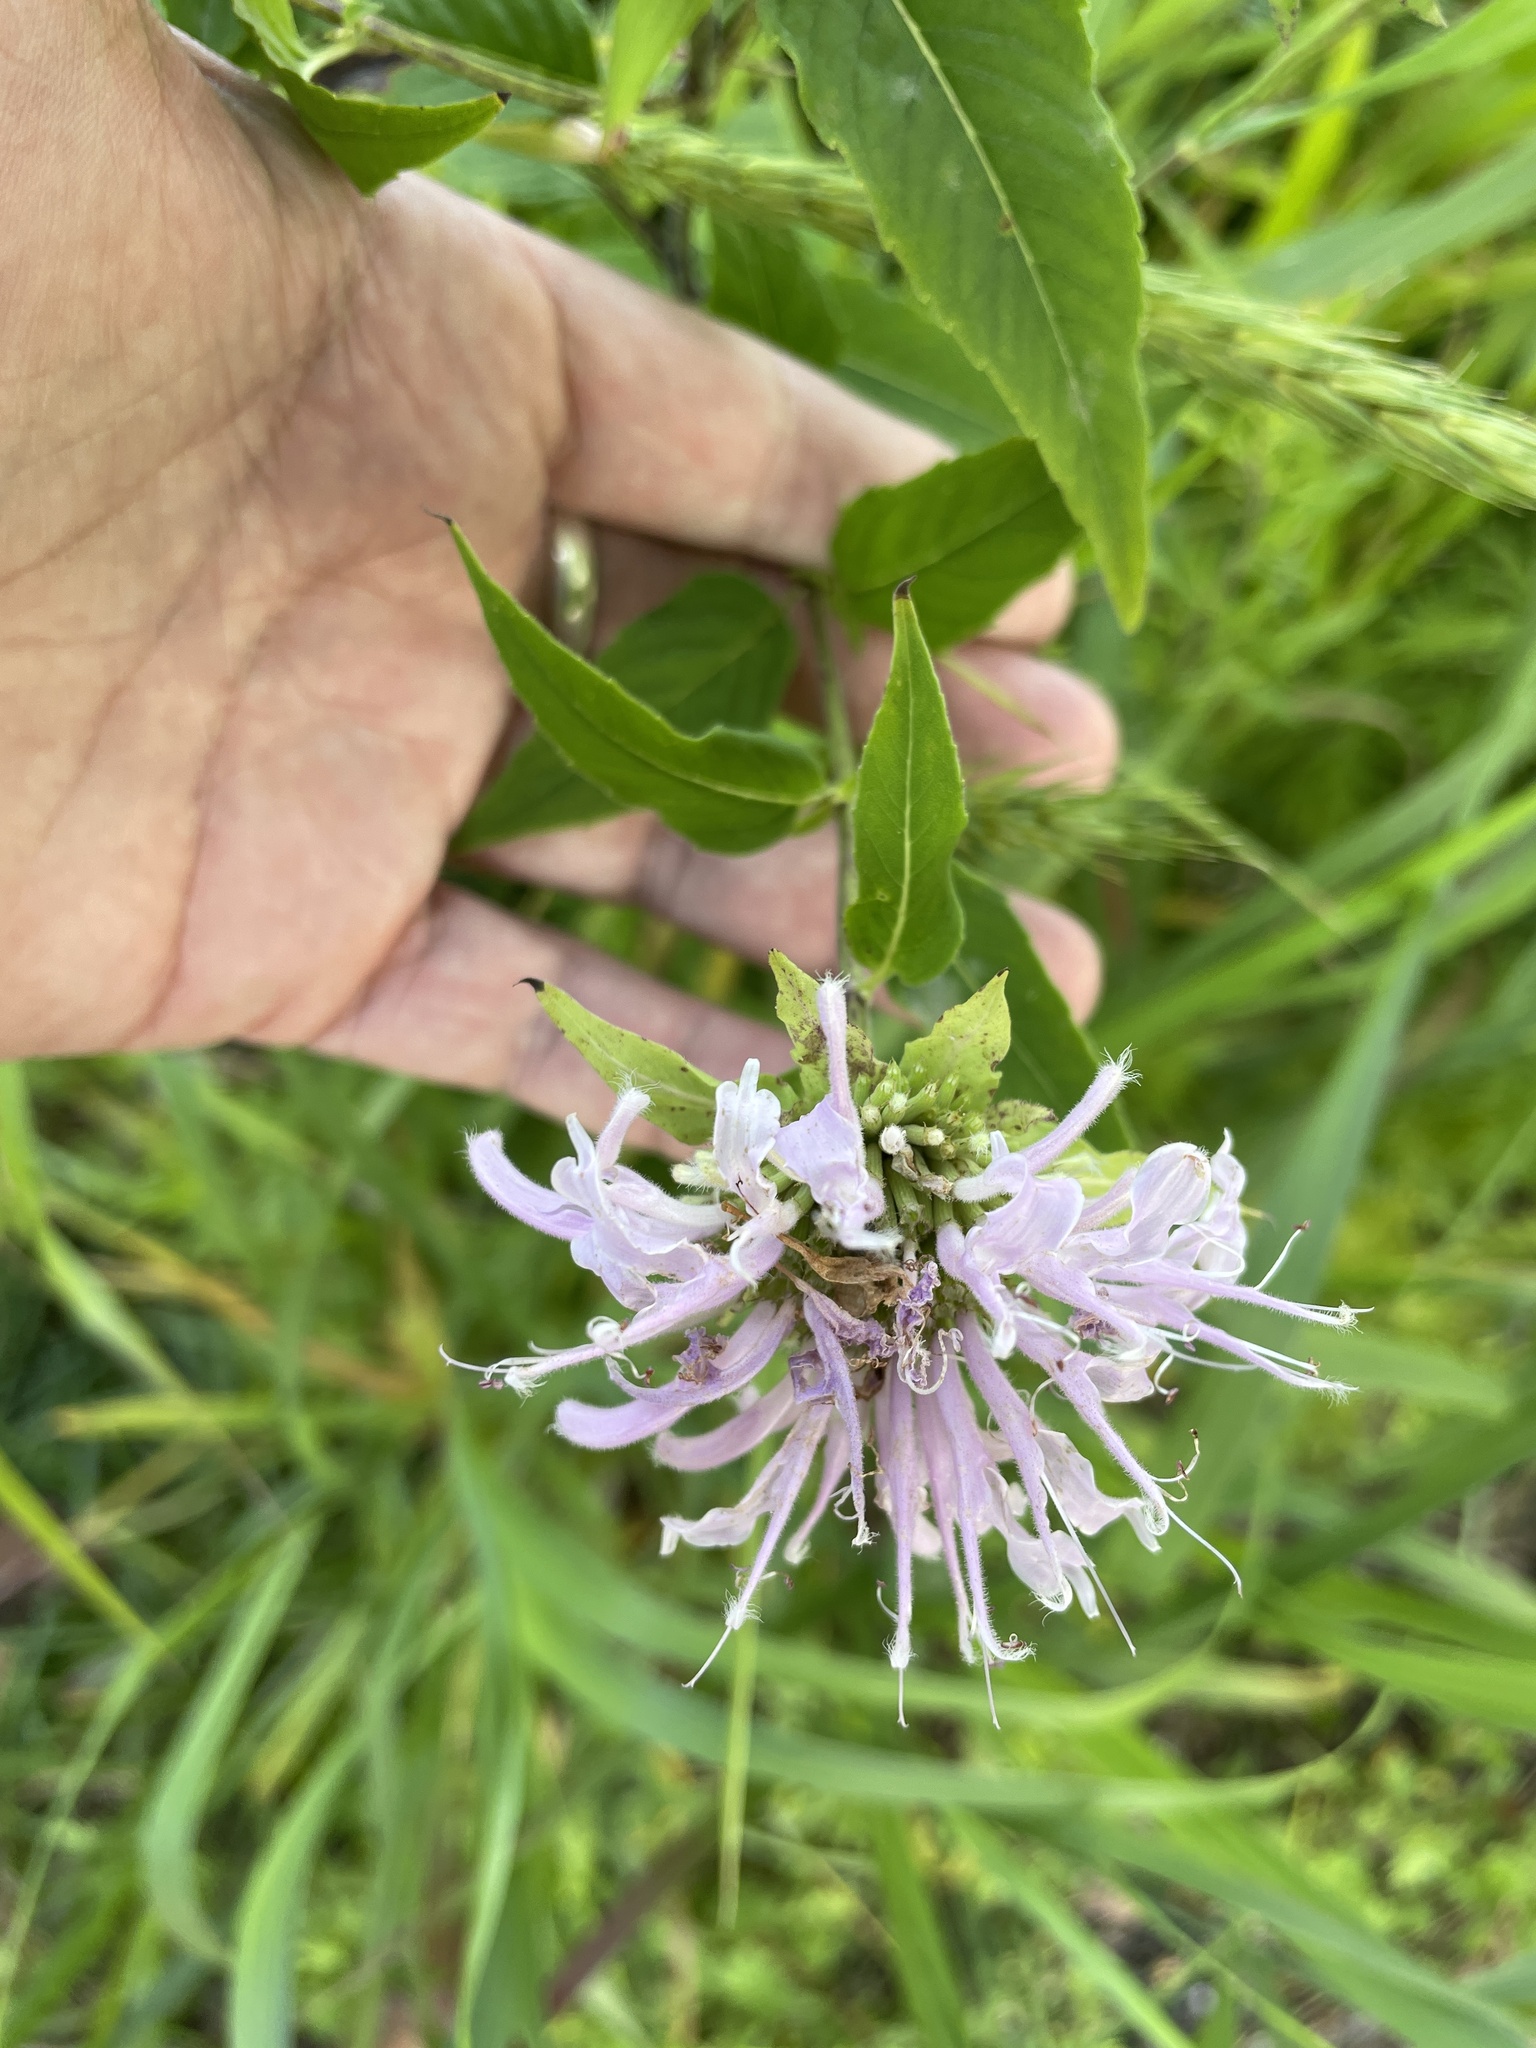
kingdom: Plantae
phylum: Tracheophyta
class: Magnoliopsida
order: Lamiales
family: Lamiaceae
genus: Monarda
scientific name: Monarda fistulosa
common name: Purple beebalm
